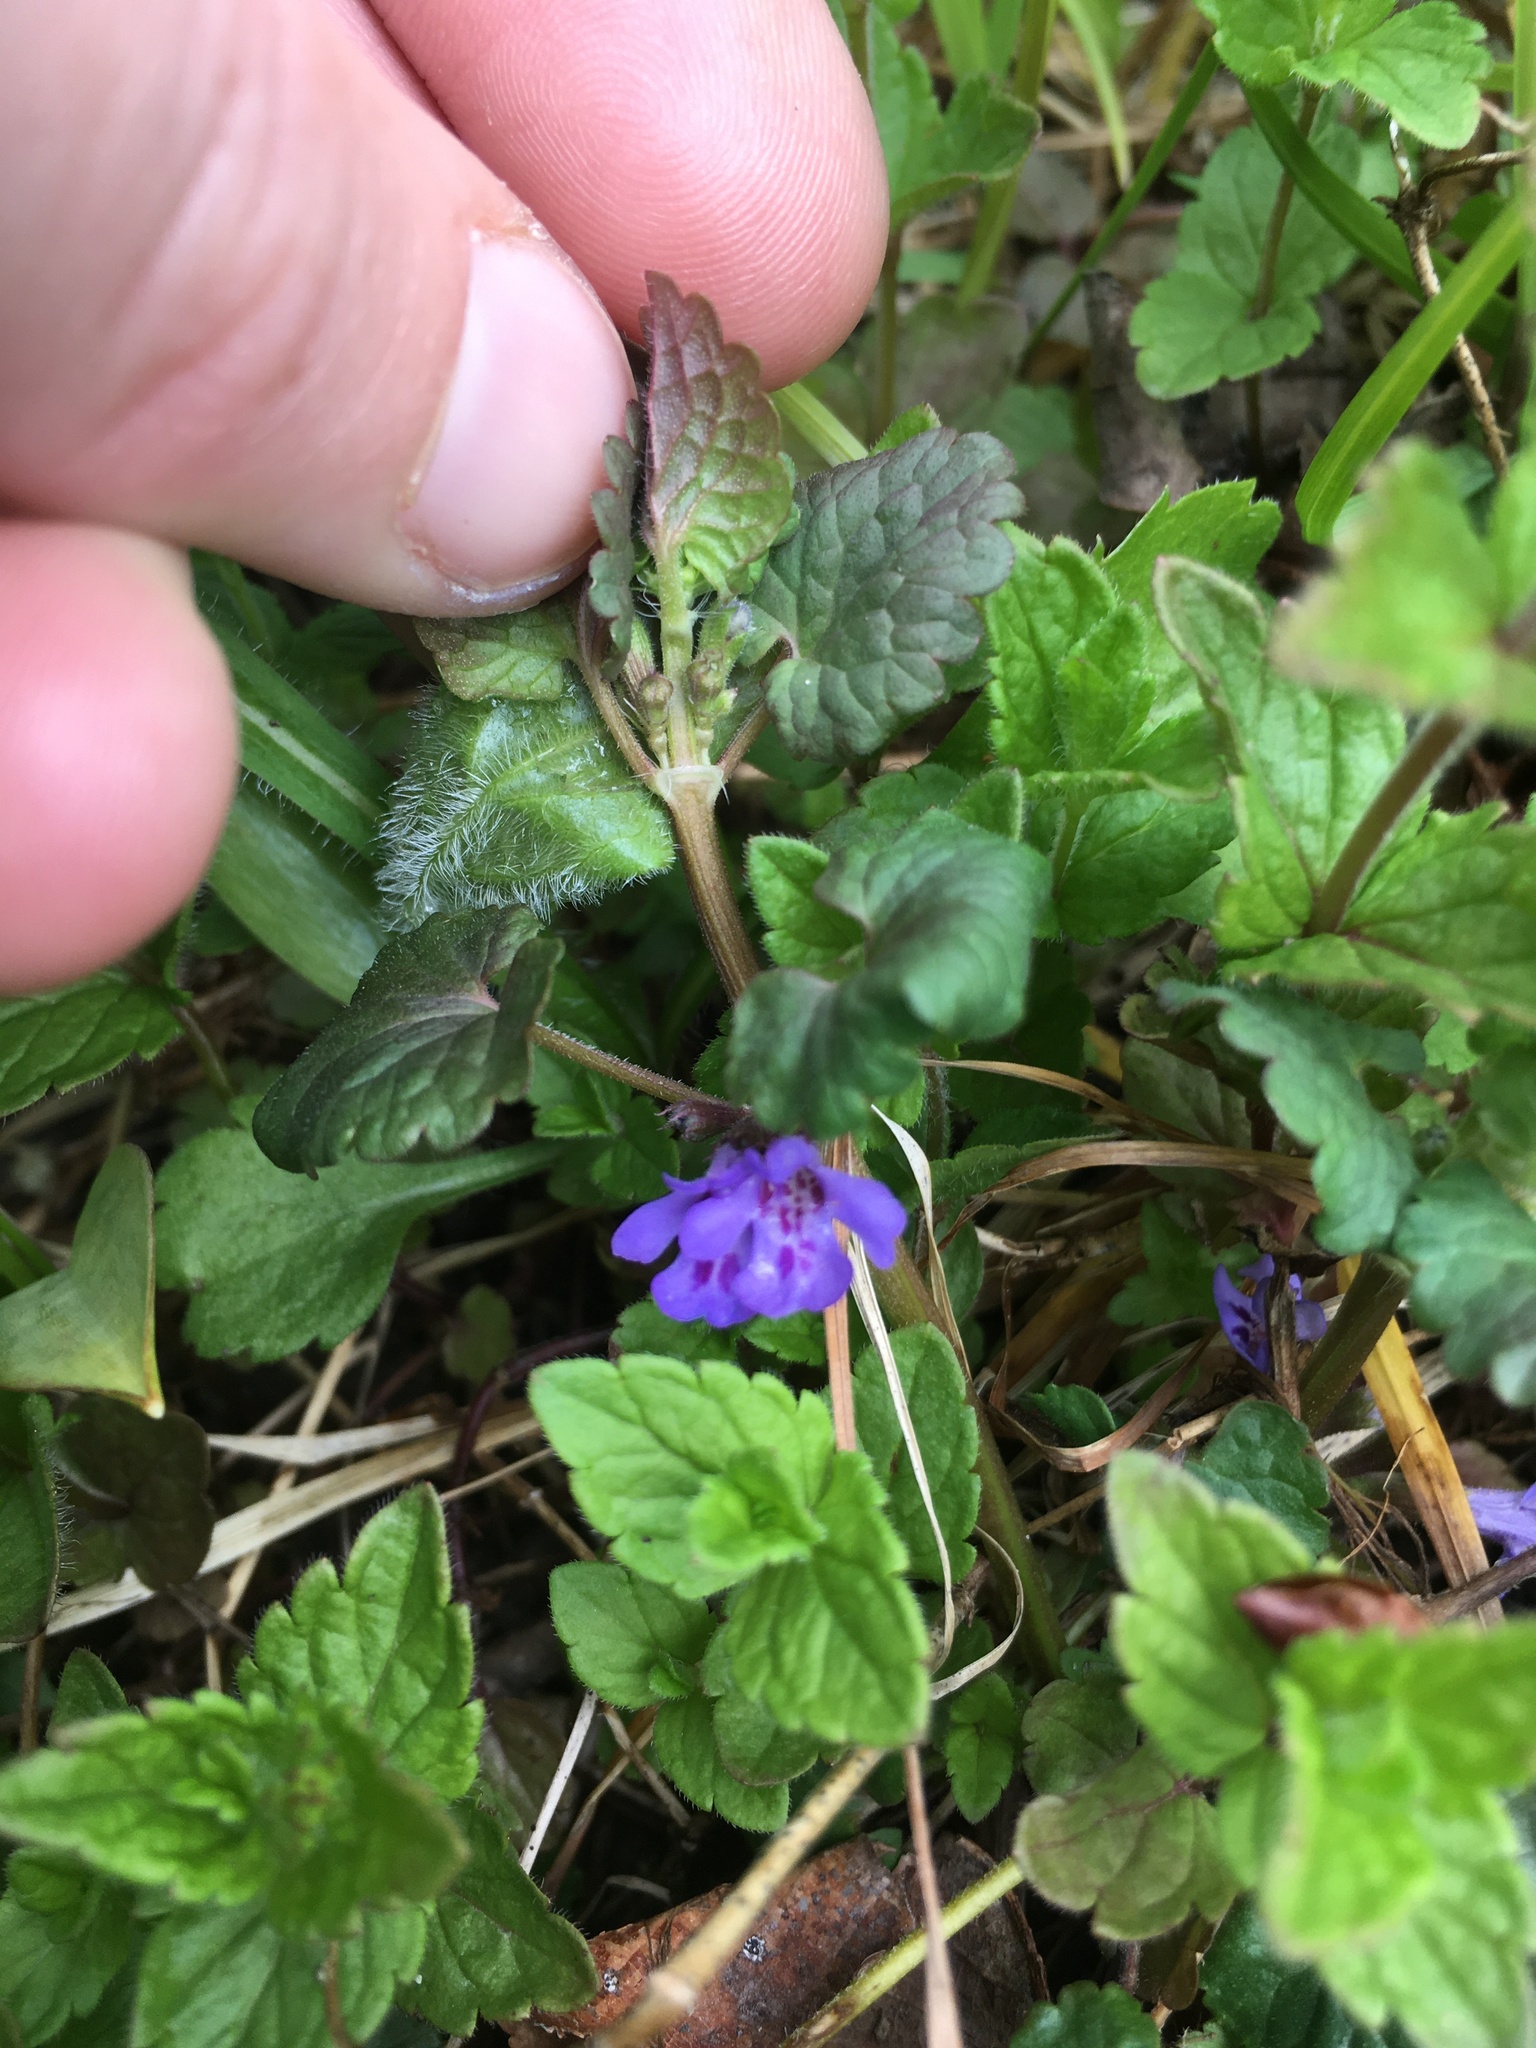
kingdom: Plantae
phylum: Tracheophyta
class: Magnoliopsida
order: Lamiales
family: Lamiaceae
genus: Glechoma
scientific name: Glechoma hederacea
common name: Ground ivy
